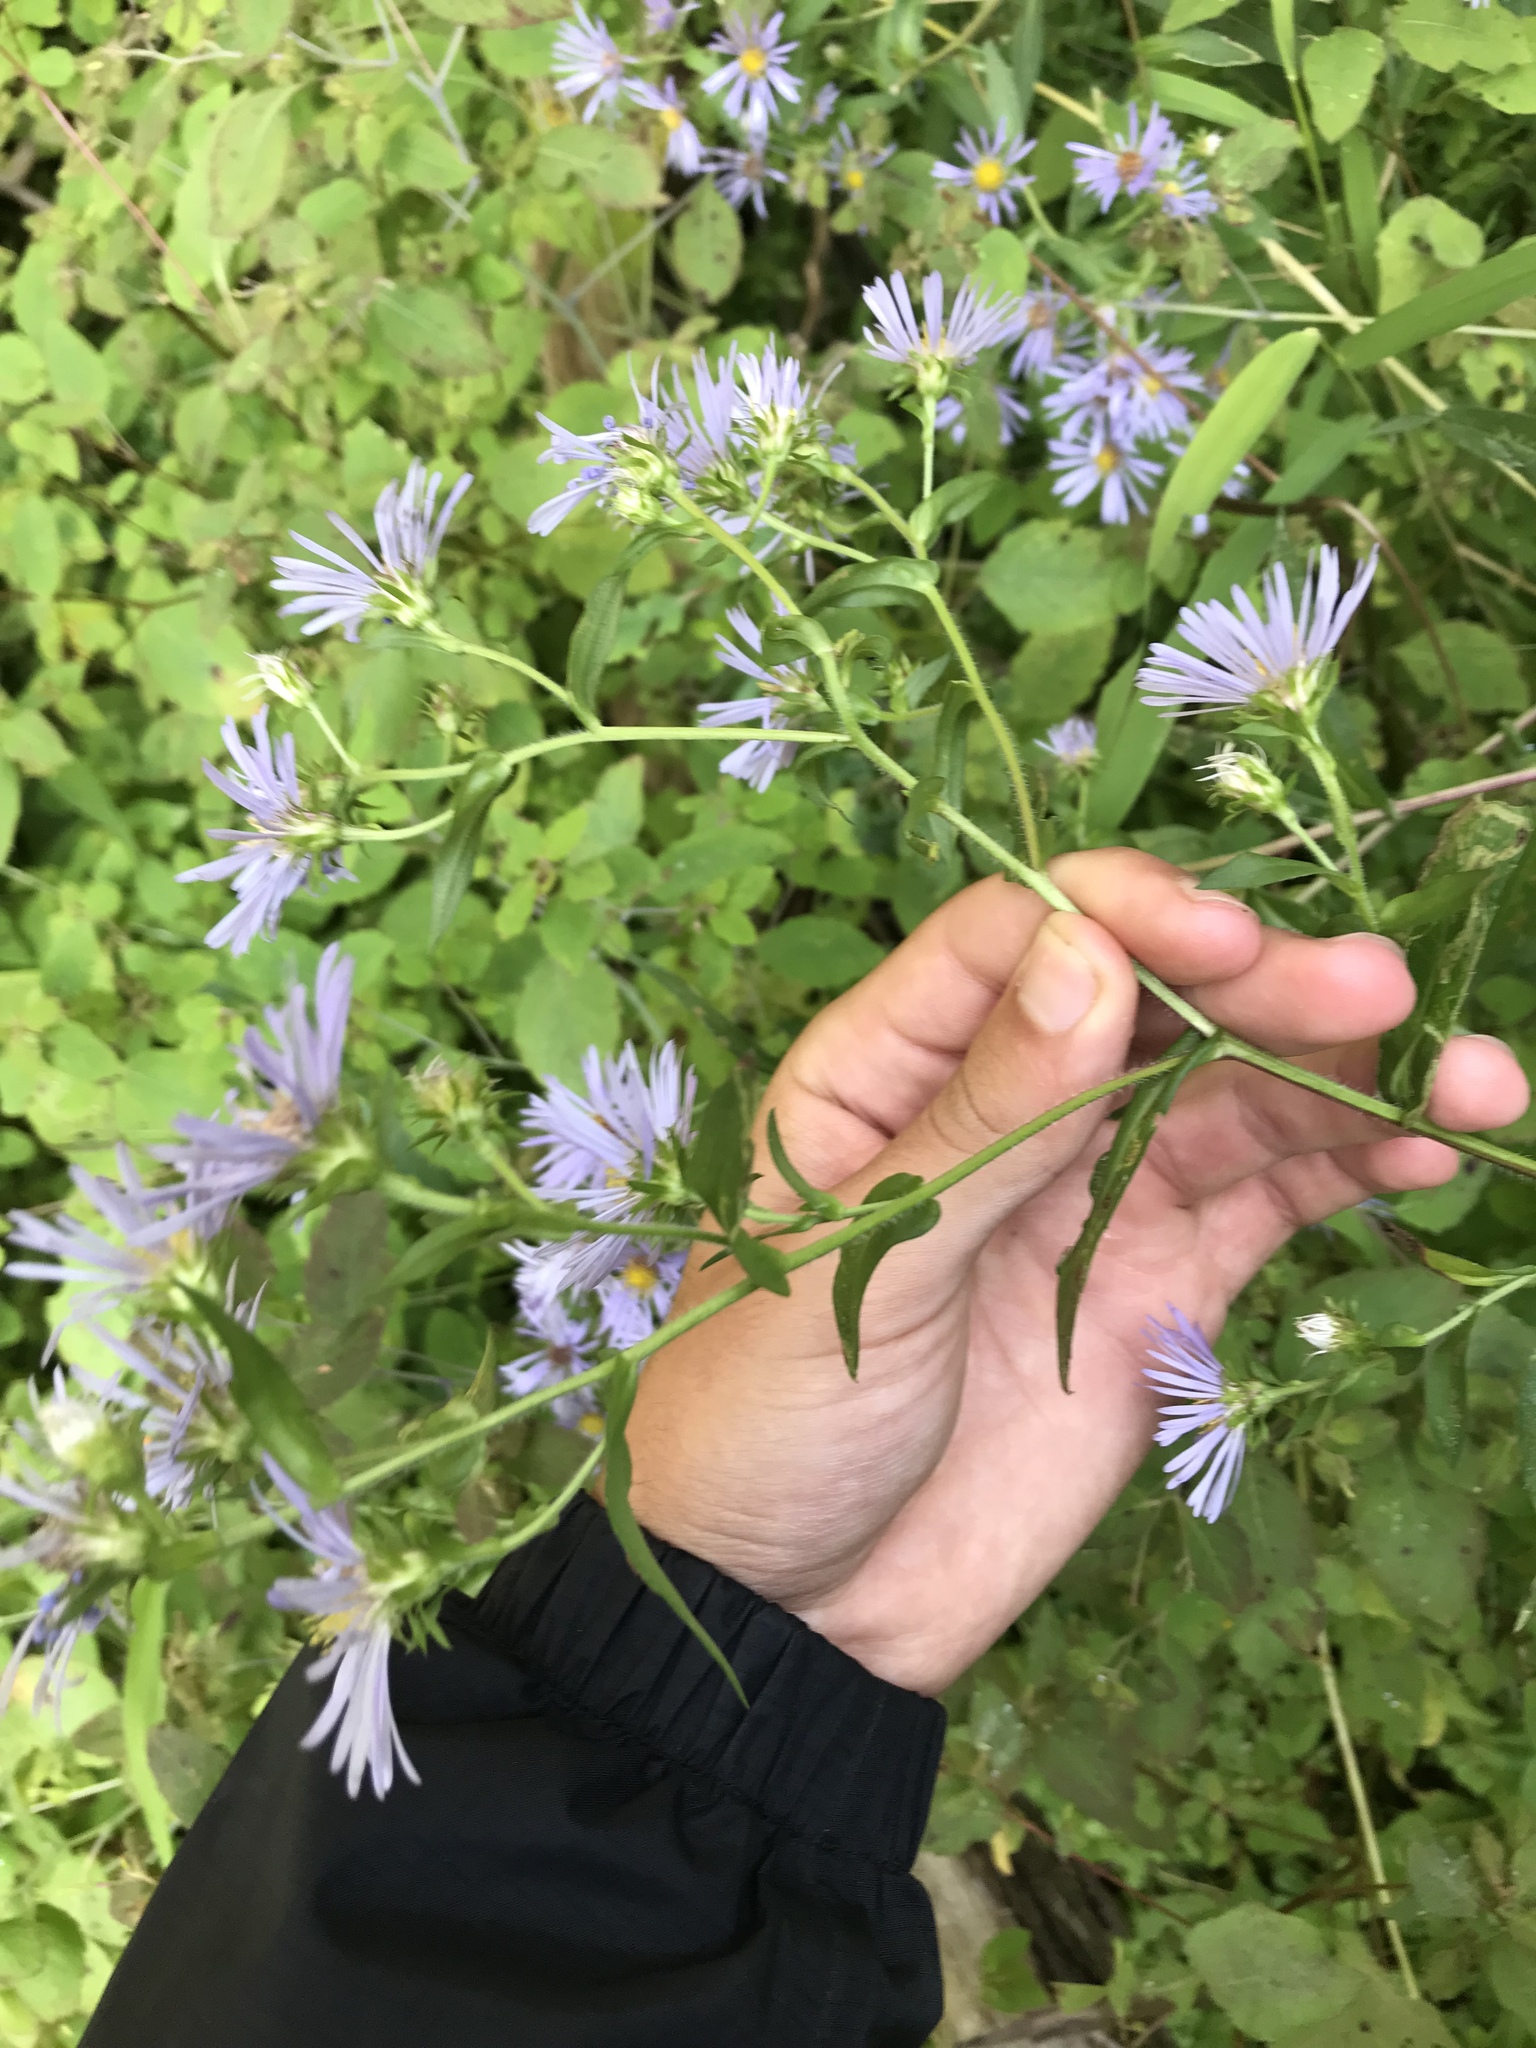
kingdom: Plantae
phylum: Tracheophyta
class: Magnoliopsida
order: Asterales
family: Asteraceae
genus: Symphyotrichum
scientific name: Symphyotrichum puniceum
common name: Bog aster
